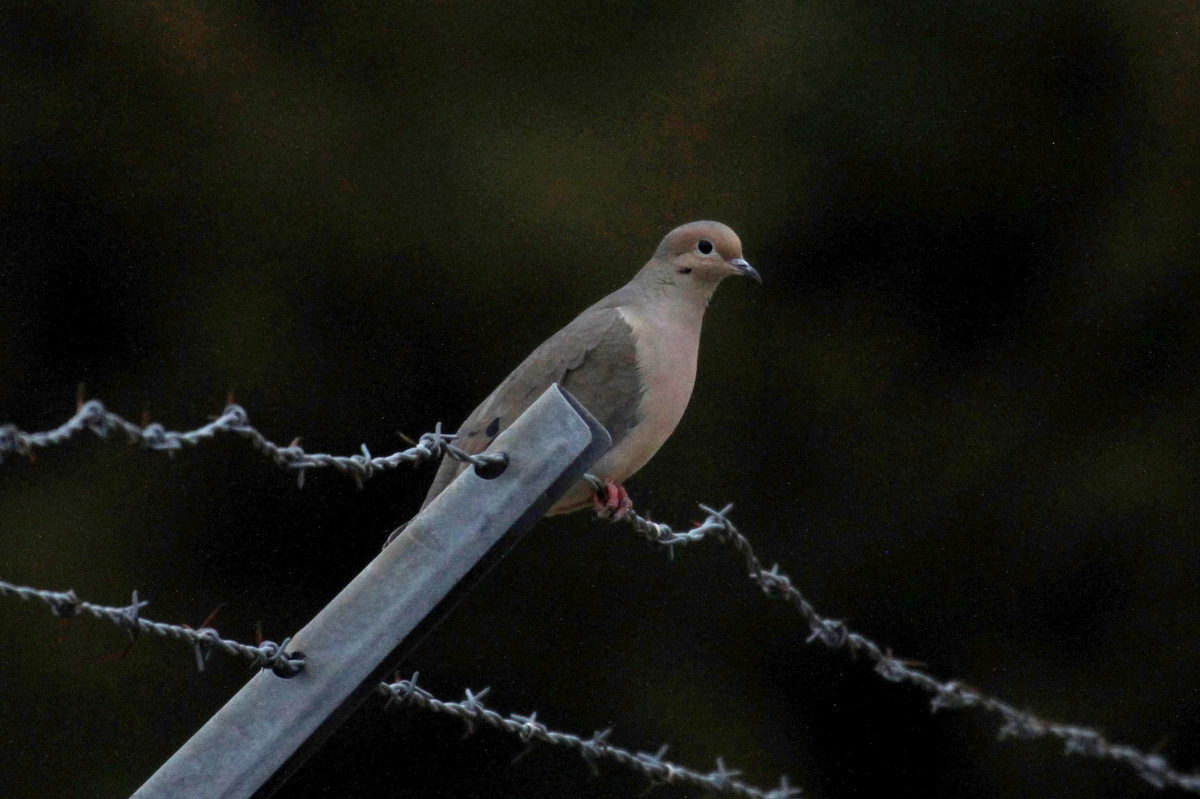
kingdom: Animalia
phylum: Chordata
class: Aves
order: Columbiformes
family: Columbidae
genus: Zenaida
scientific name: Zenaida macroura
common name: Mourning dove
